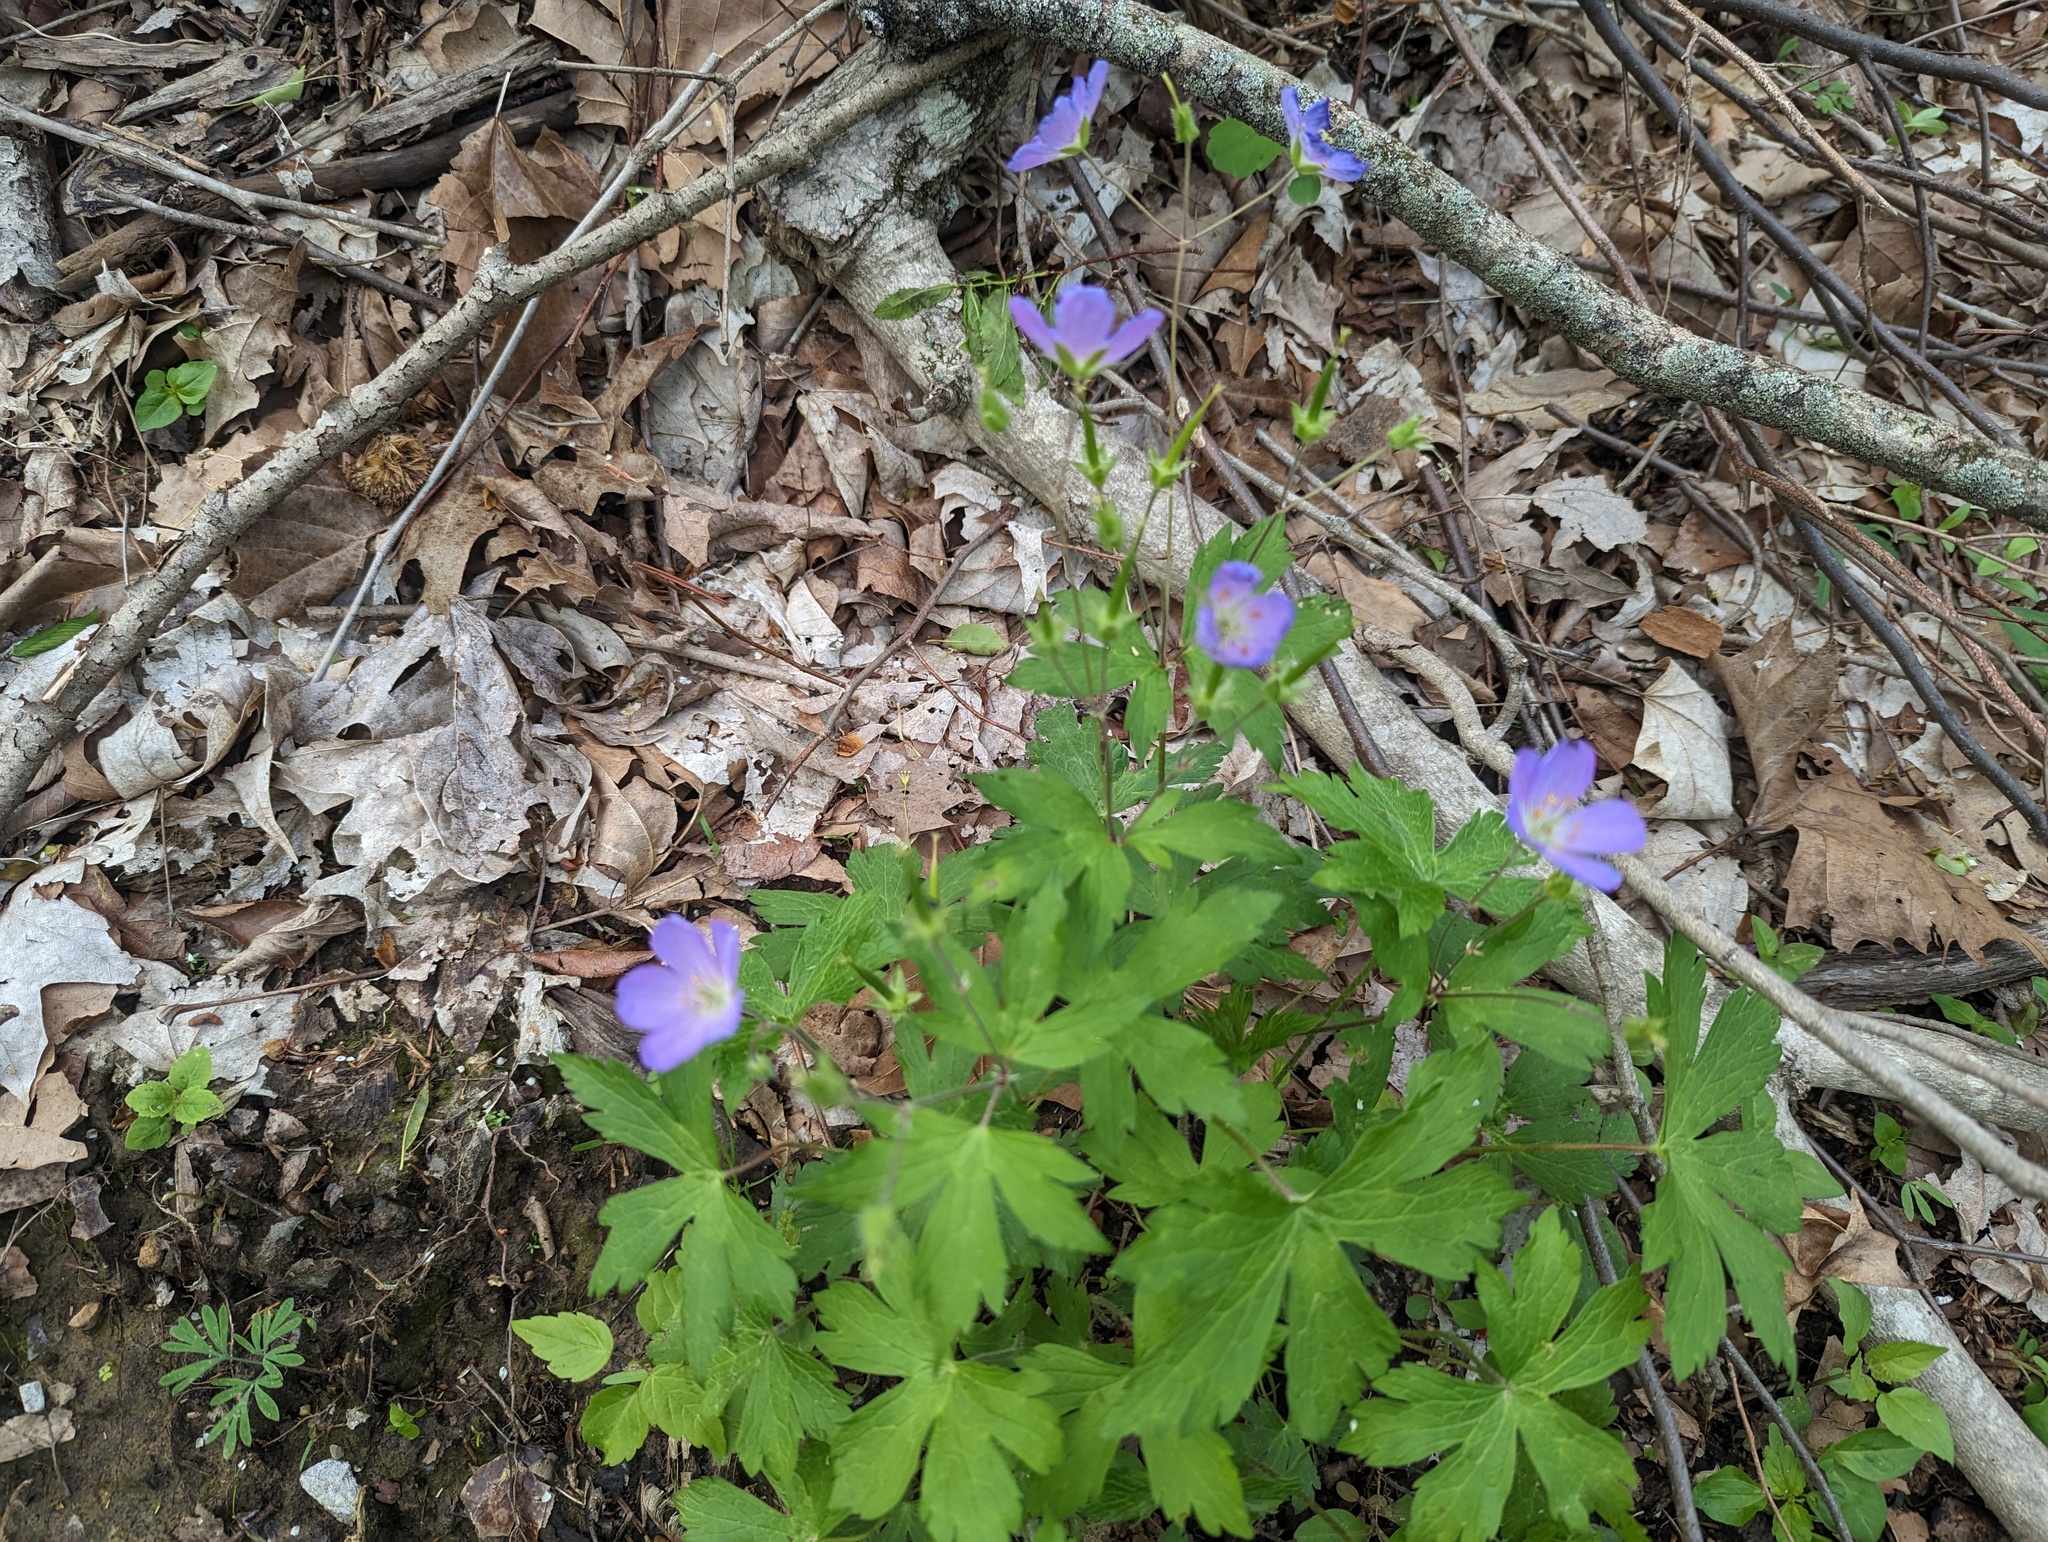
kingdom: Plantae
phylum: Tracheophyta
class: Magnoliopsida
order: Geraniales
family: Geraniaceae
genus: Geranium
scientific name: Geranium maculatum
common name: Spotted geranium
